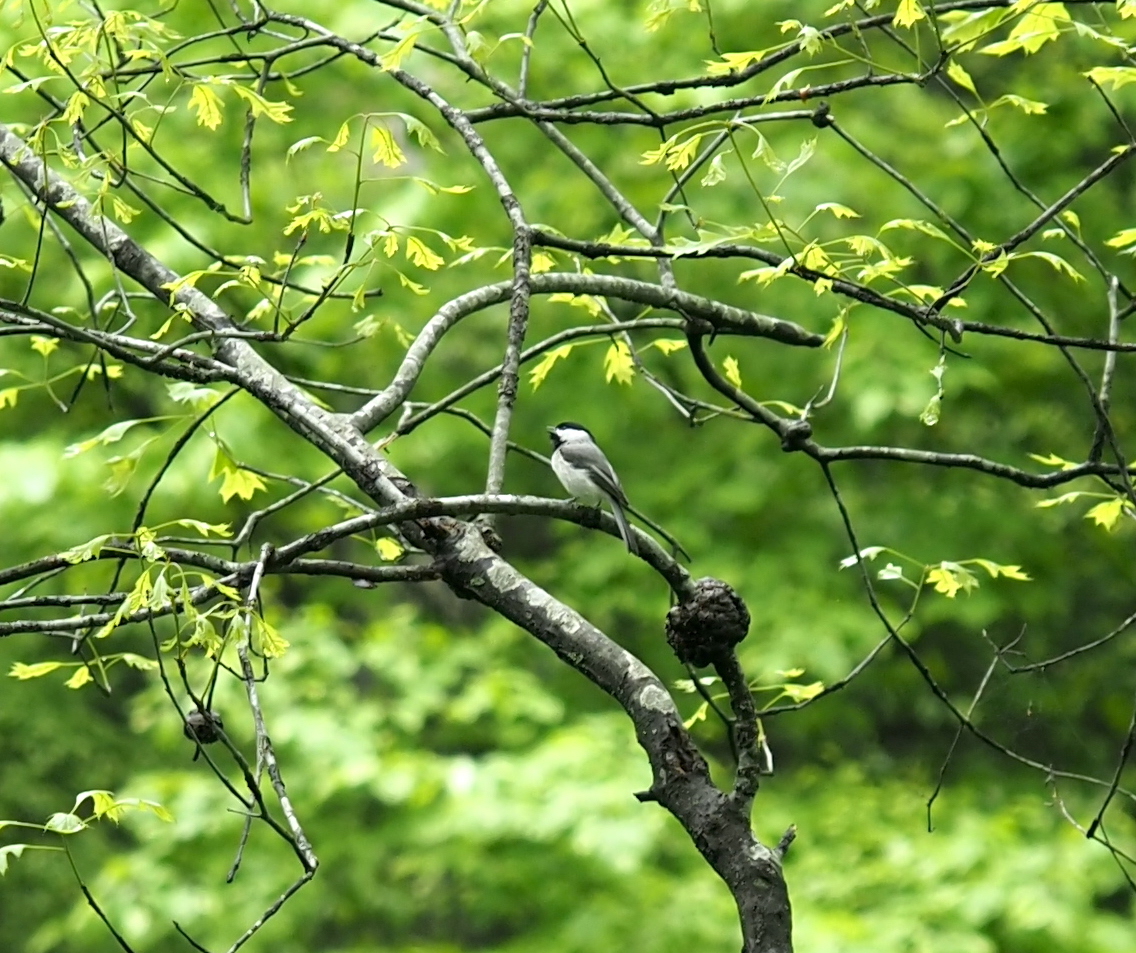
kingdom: Animalia
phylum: Chordata
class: Aves
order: Passeriformes
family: Paridae
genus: Poecile
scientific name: Poecile carolinensis
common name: Carolina chickadee
